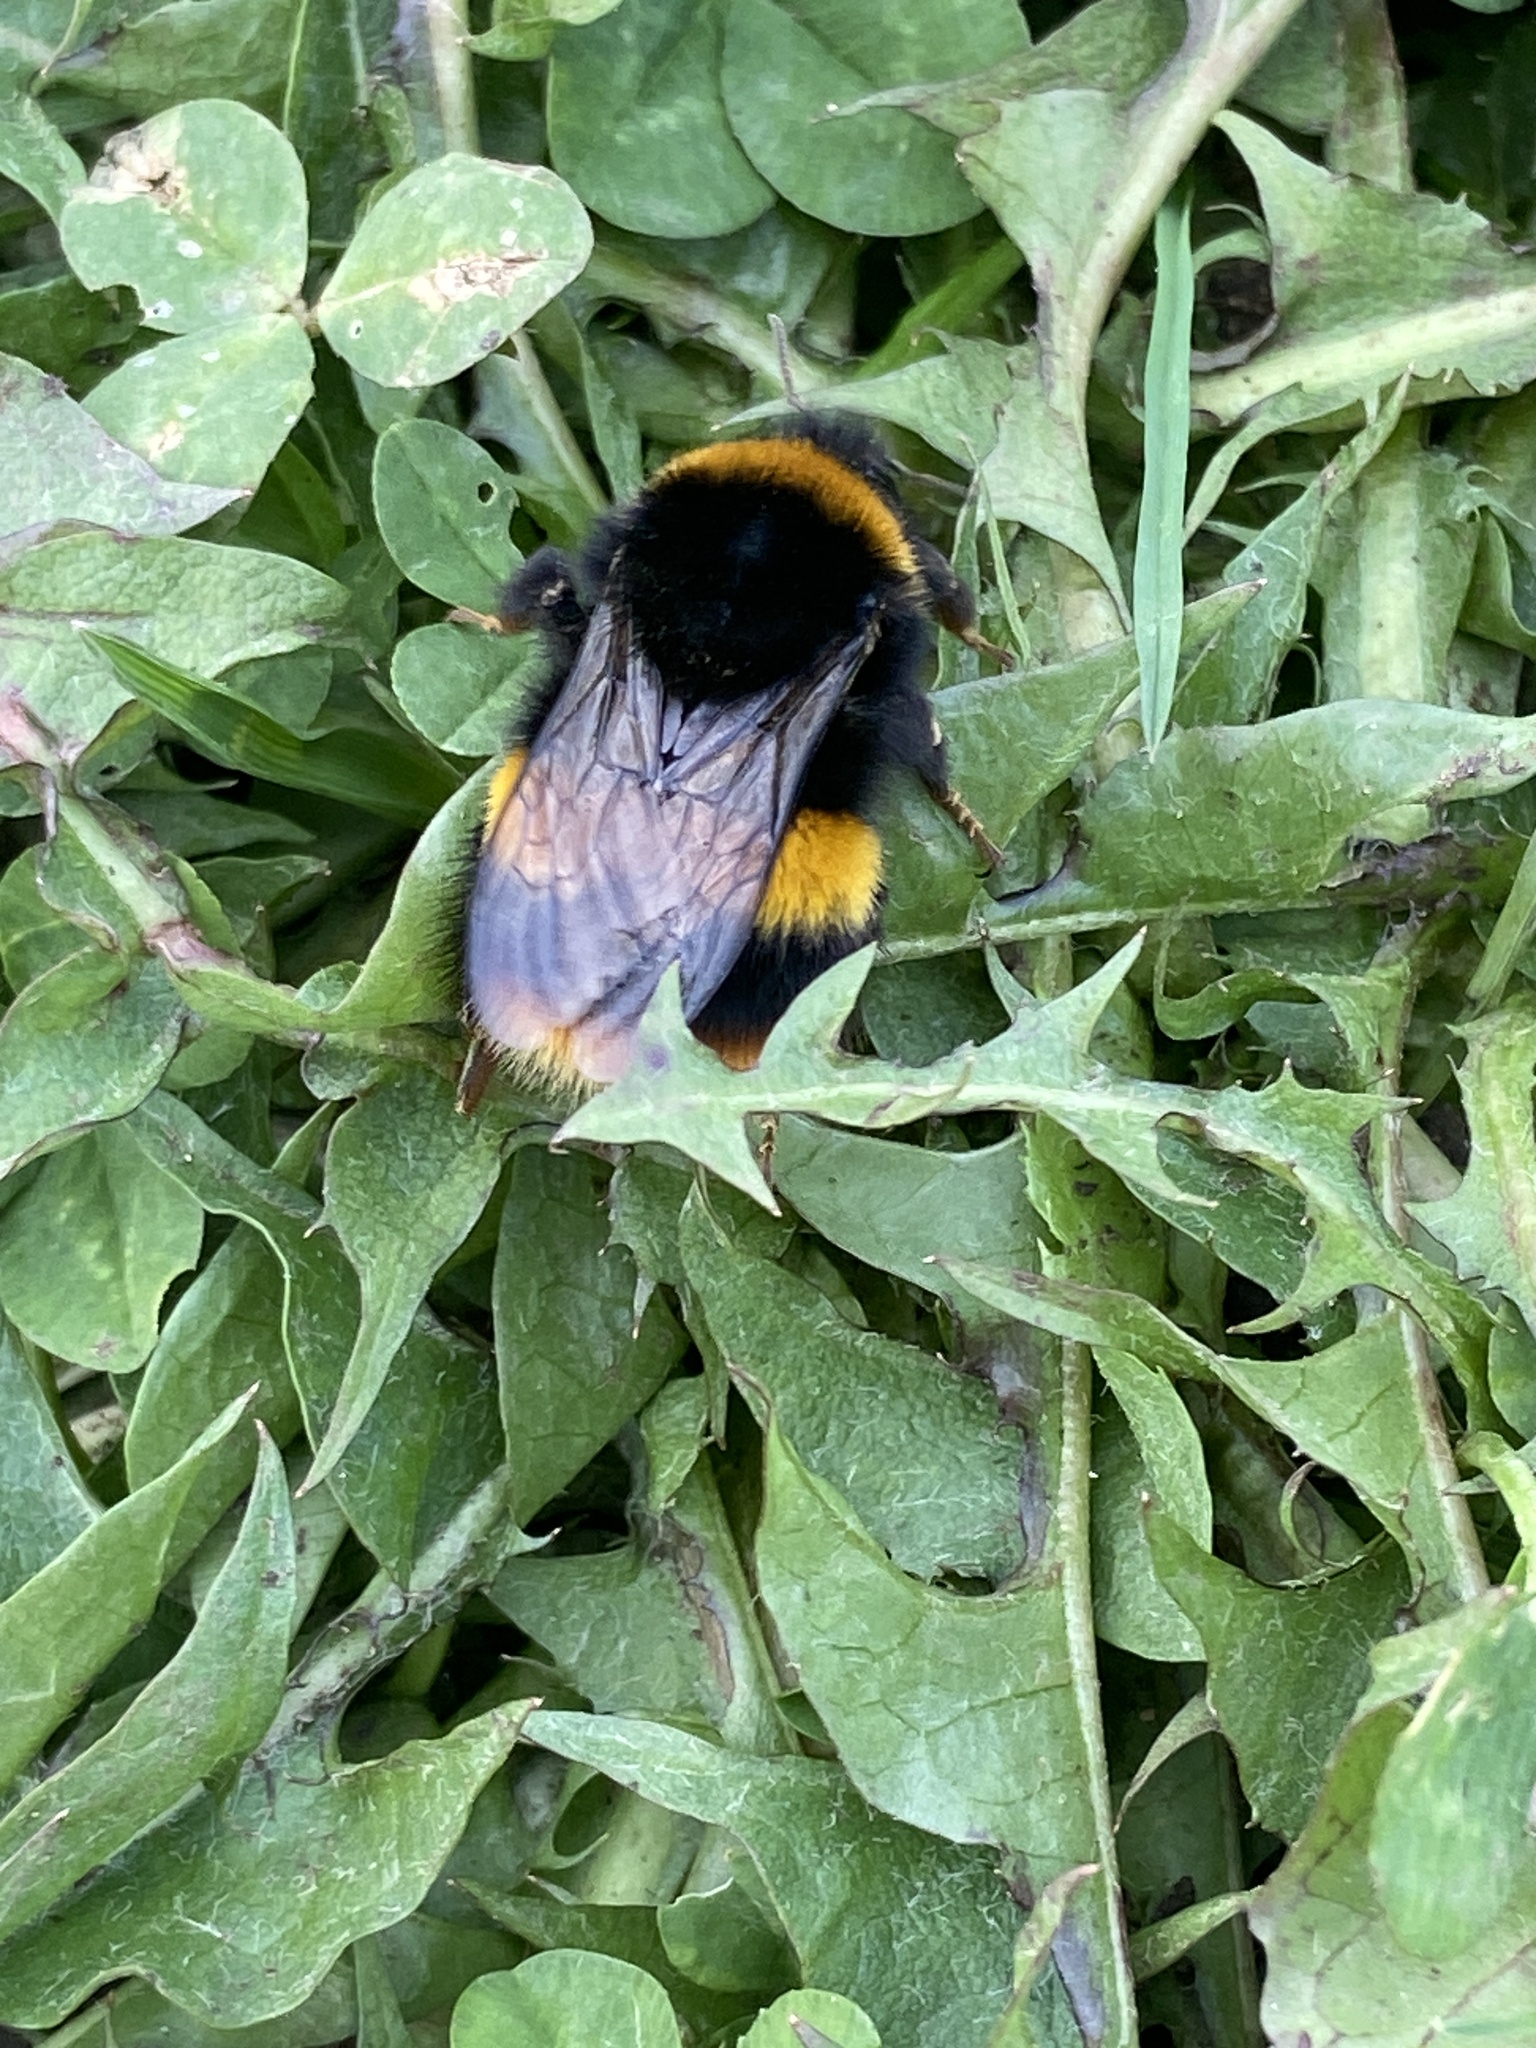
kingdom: Animalia
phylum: Arthropoda
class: Insecta
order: Hymenoptera
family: Apidae
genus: Bombus
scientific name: Bombus terrestris
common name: Buff-tailed bumblebee
